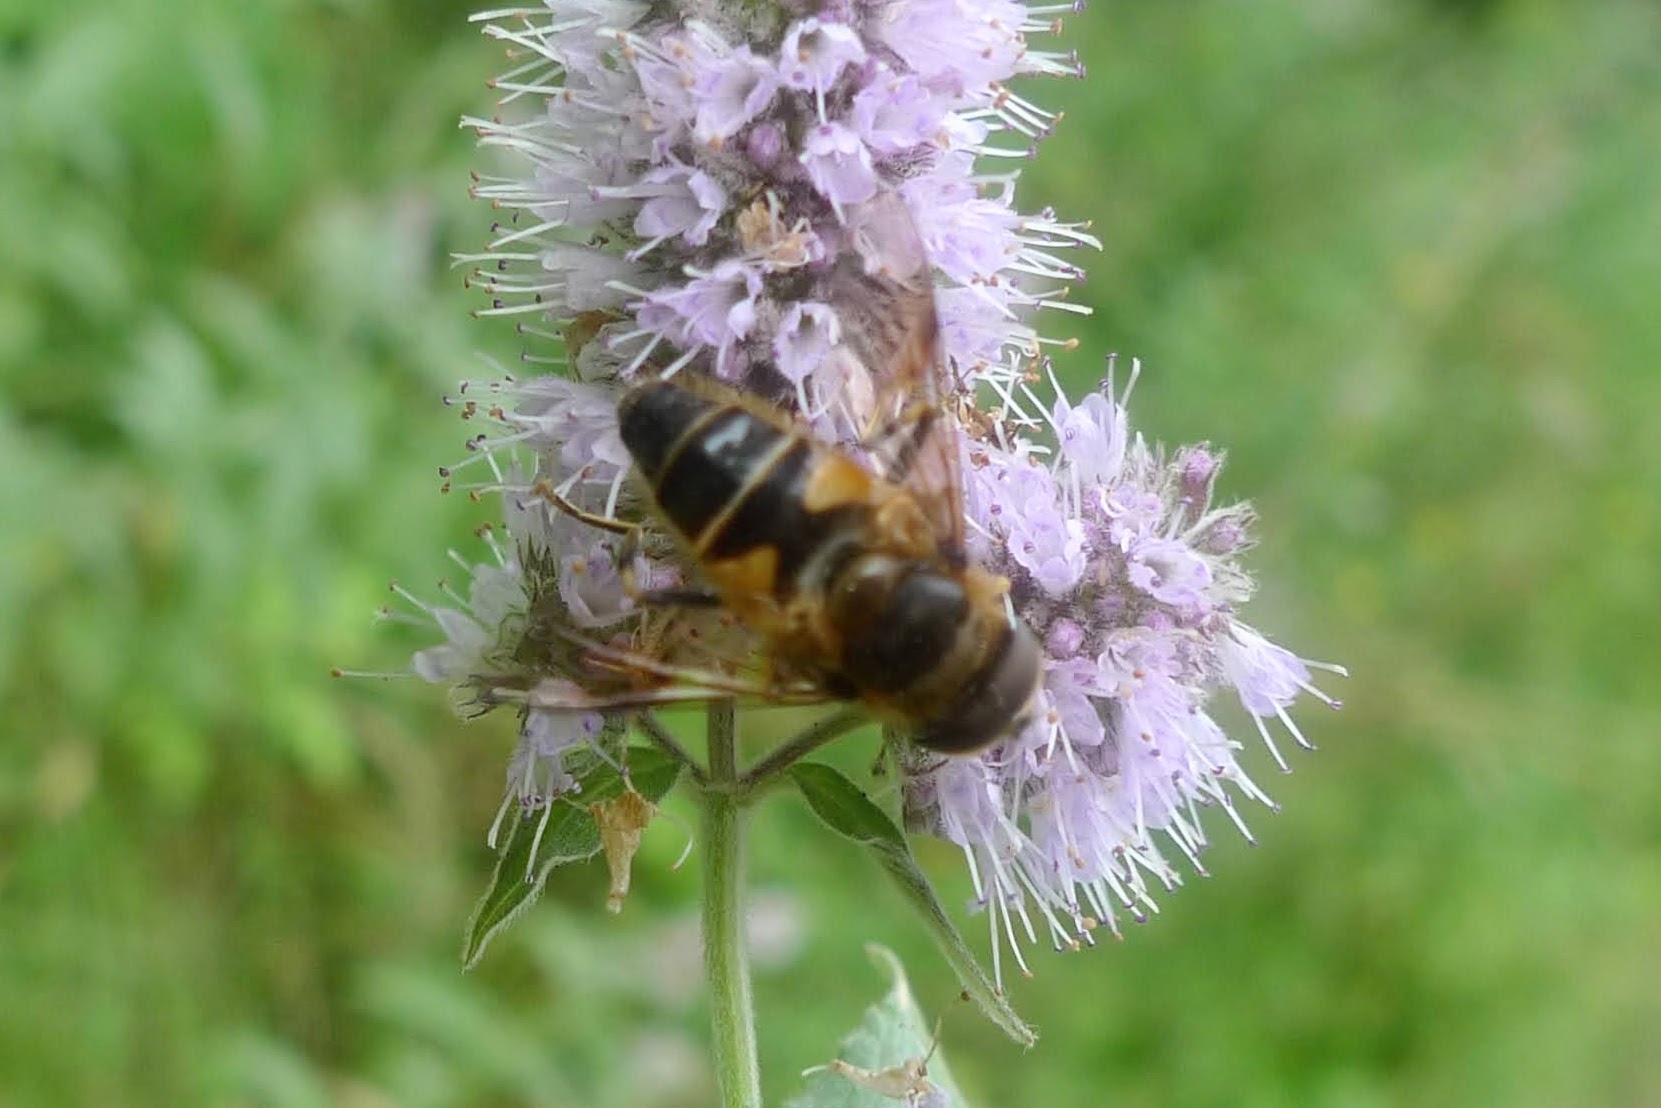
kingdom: Animalia
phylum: Arthropoda
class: Insecta
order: Diptera
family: Syrphidae
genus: Eristalis
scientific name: Eristalis pertinax
